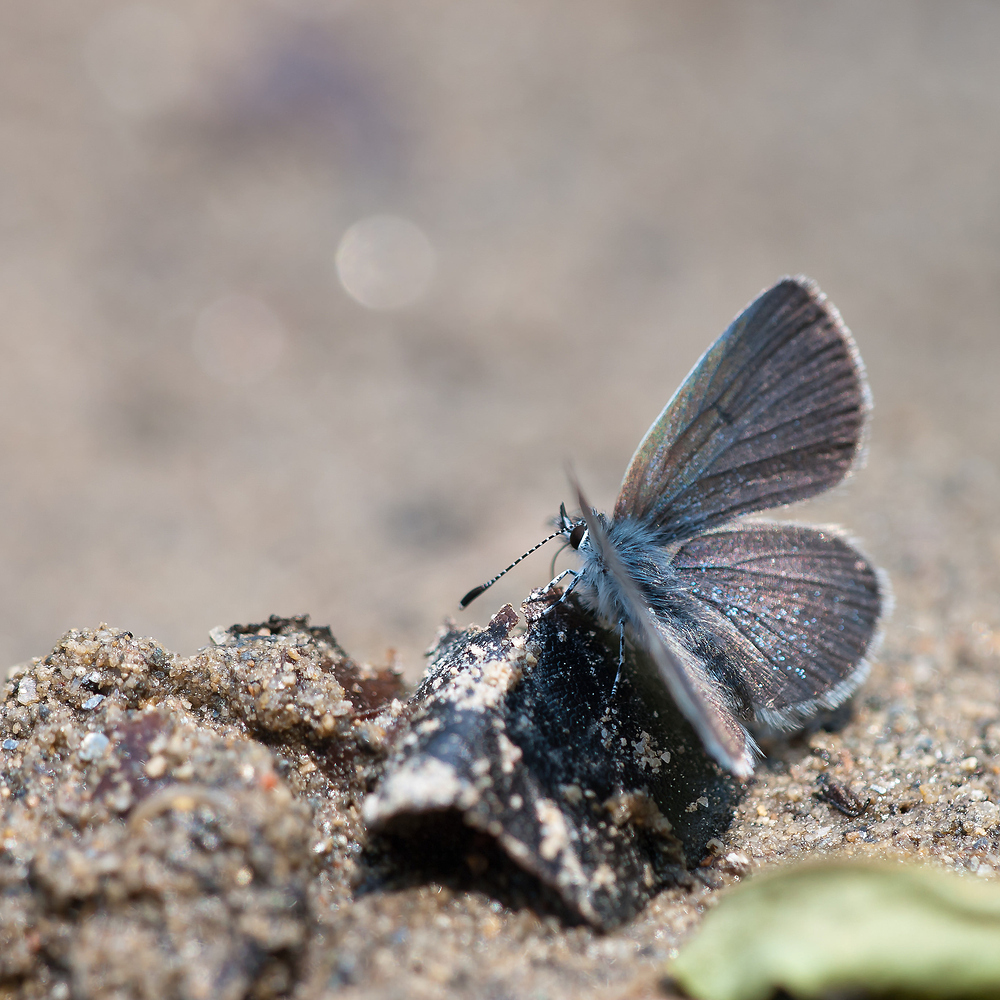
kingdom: Animalia
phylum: Arthropoda
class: Insecta
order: Lepidoptera
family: Lycaenidae
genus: Cupido
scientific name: Cupido minimus
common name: Small blue
